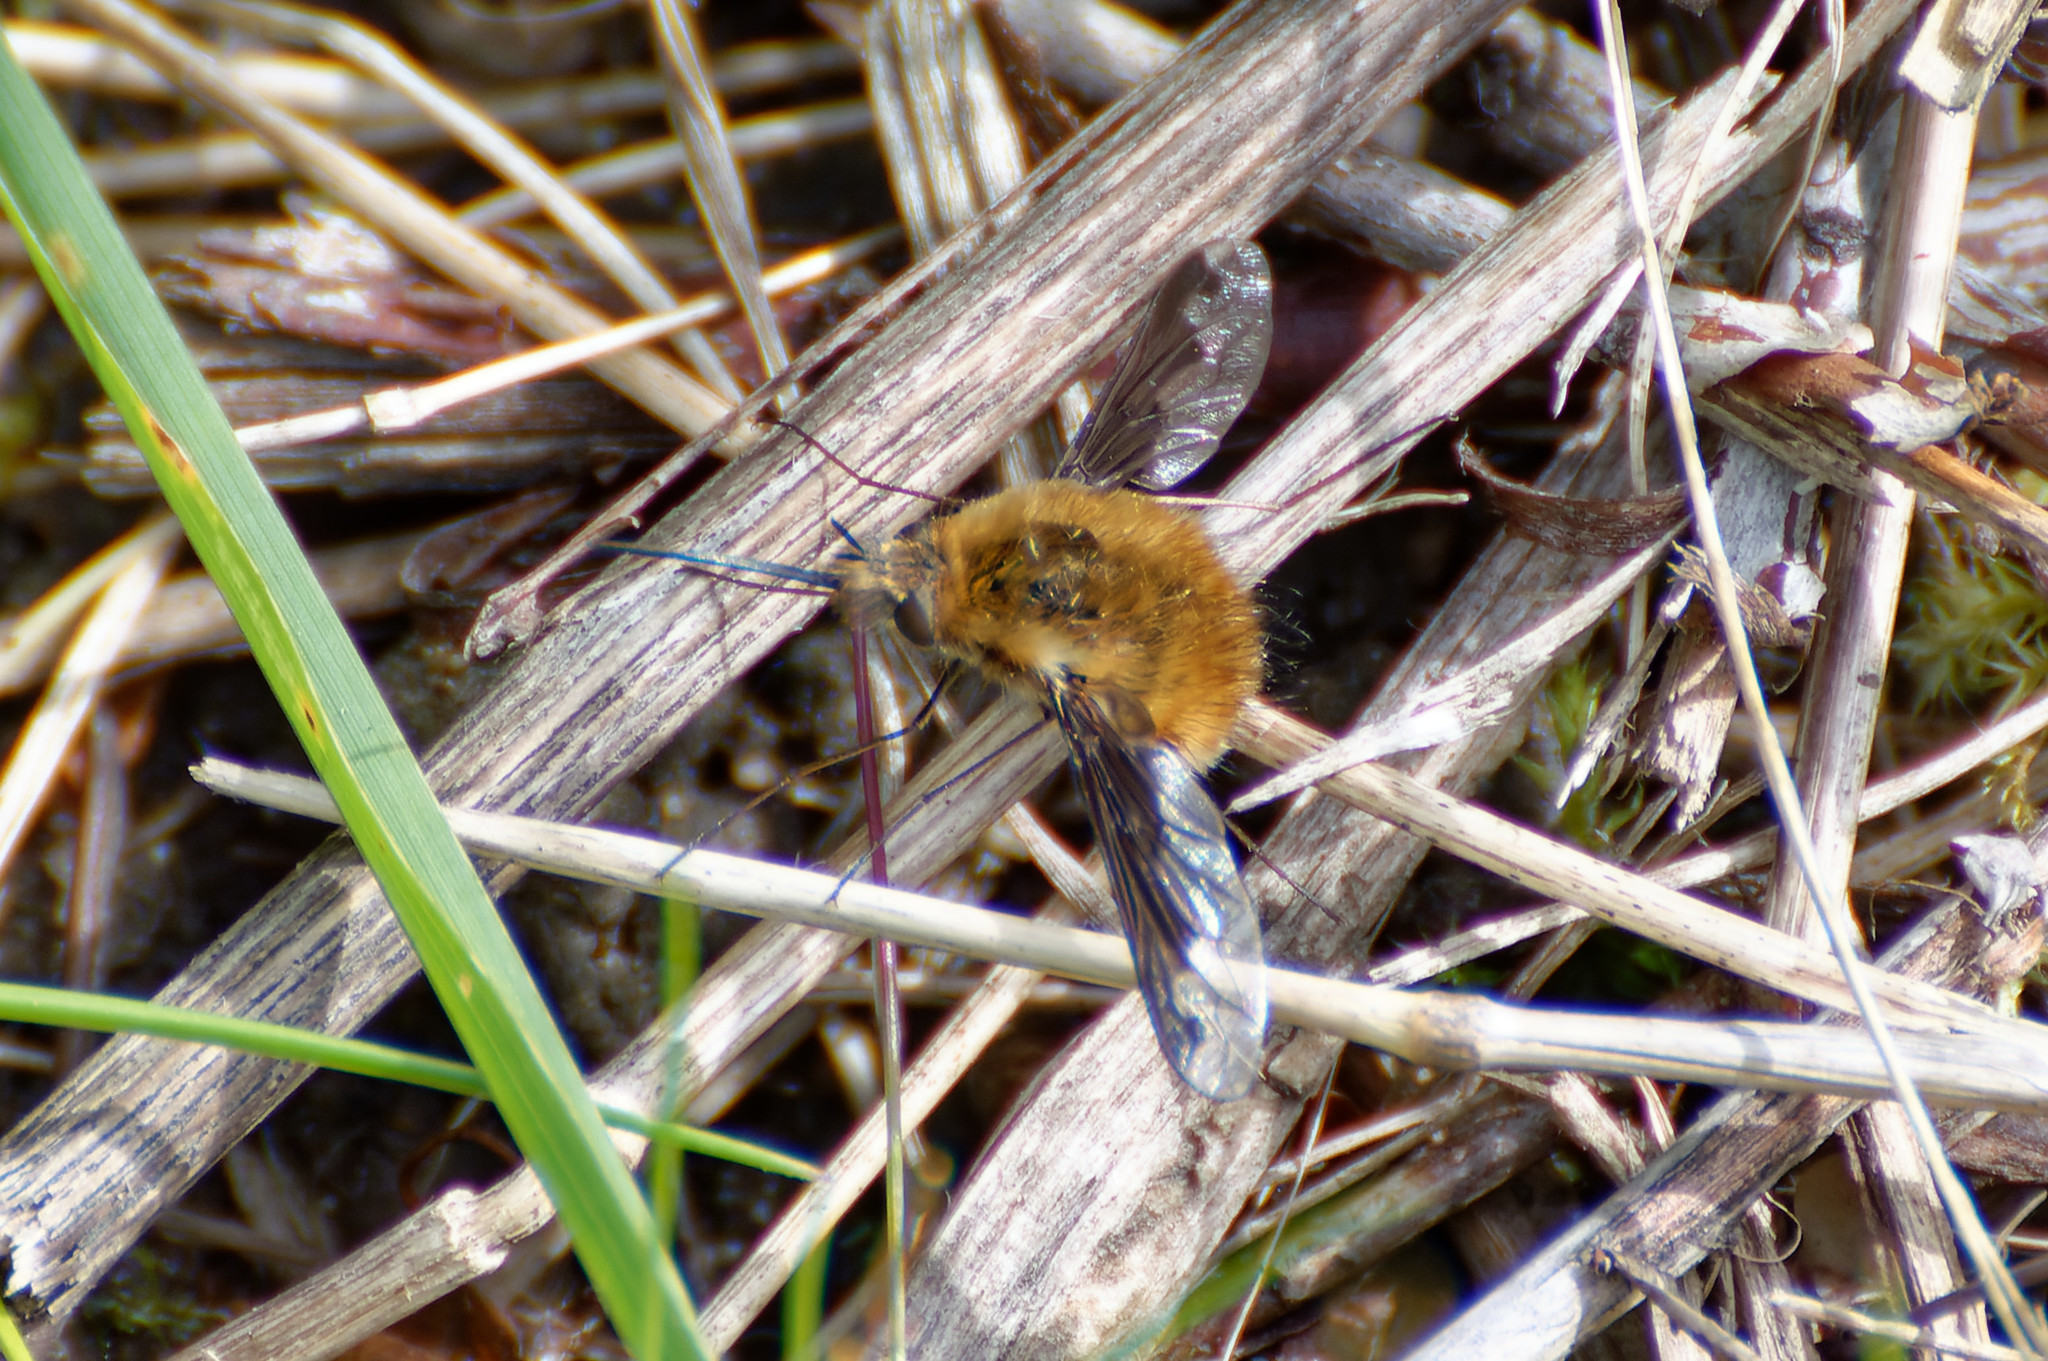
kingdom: Animalia
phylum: Arthropoda
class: Insecta
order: Diptera
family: Bombyliidae
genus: Bombylius
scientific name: Bombylius major
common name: Bee fly
